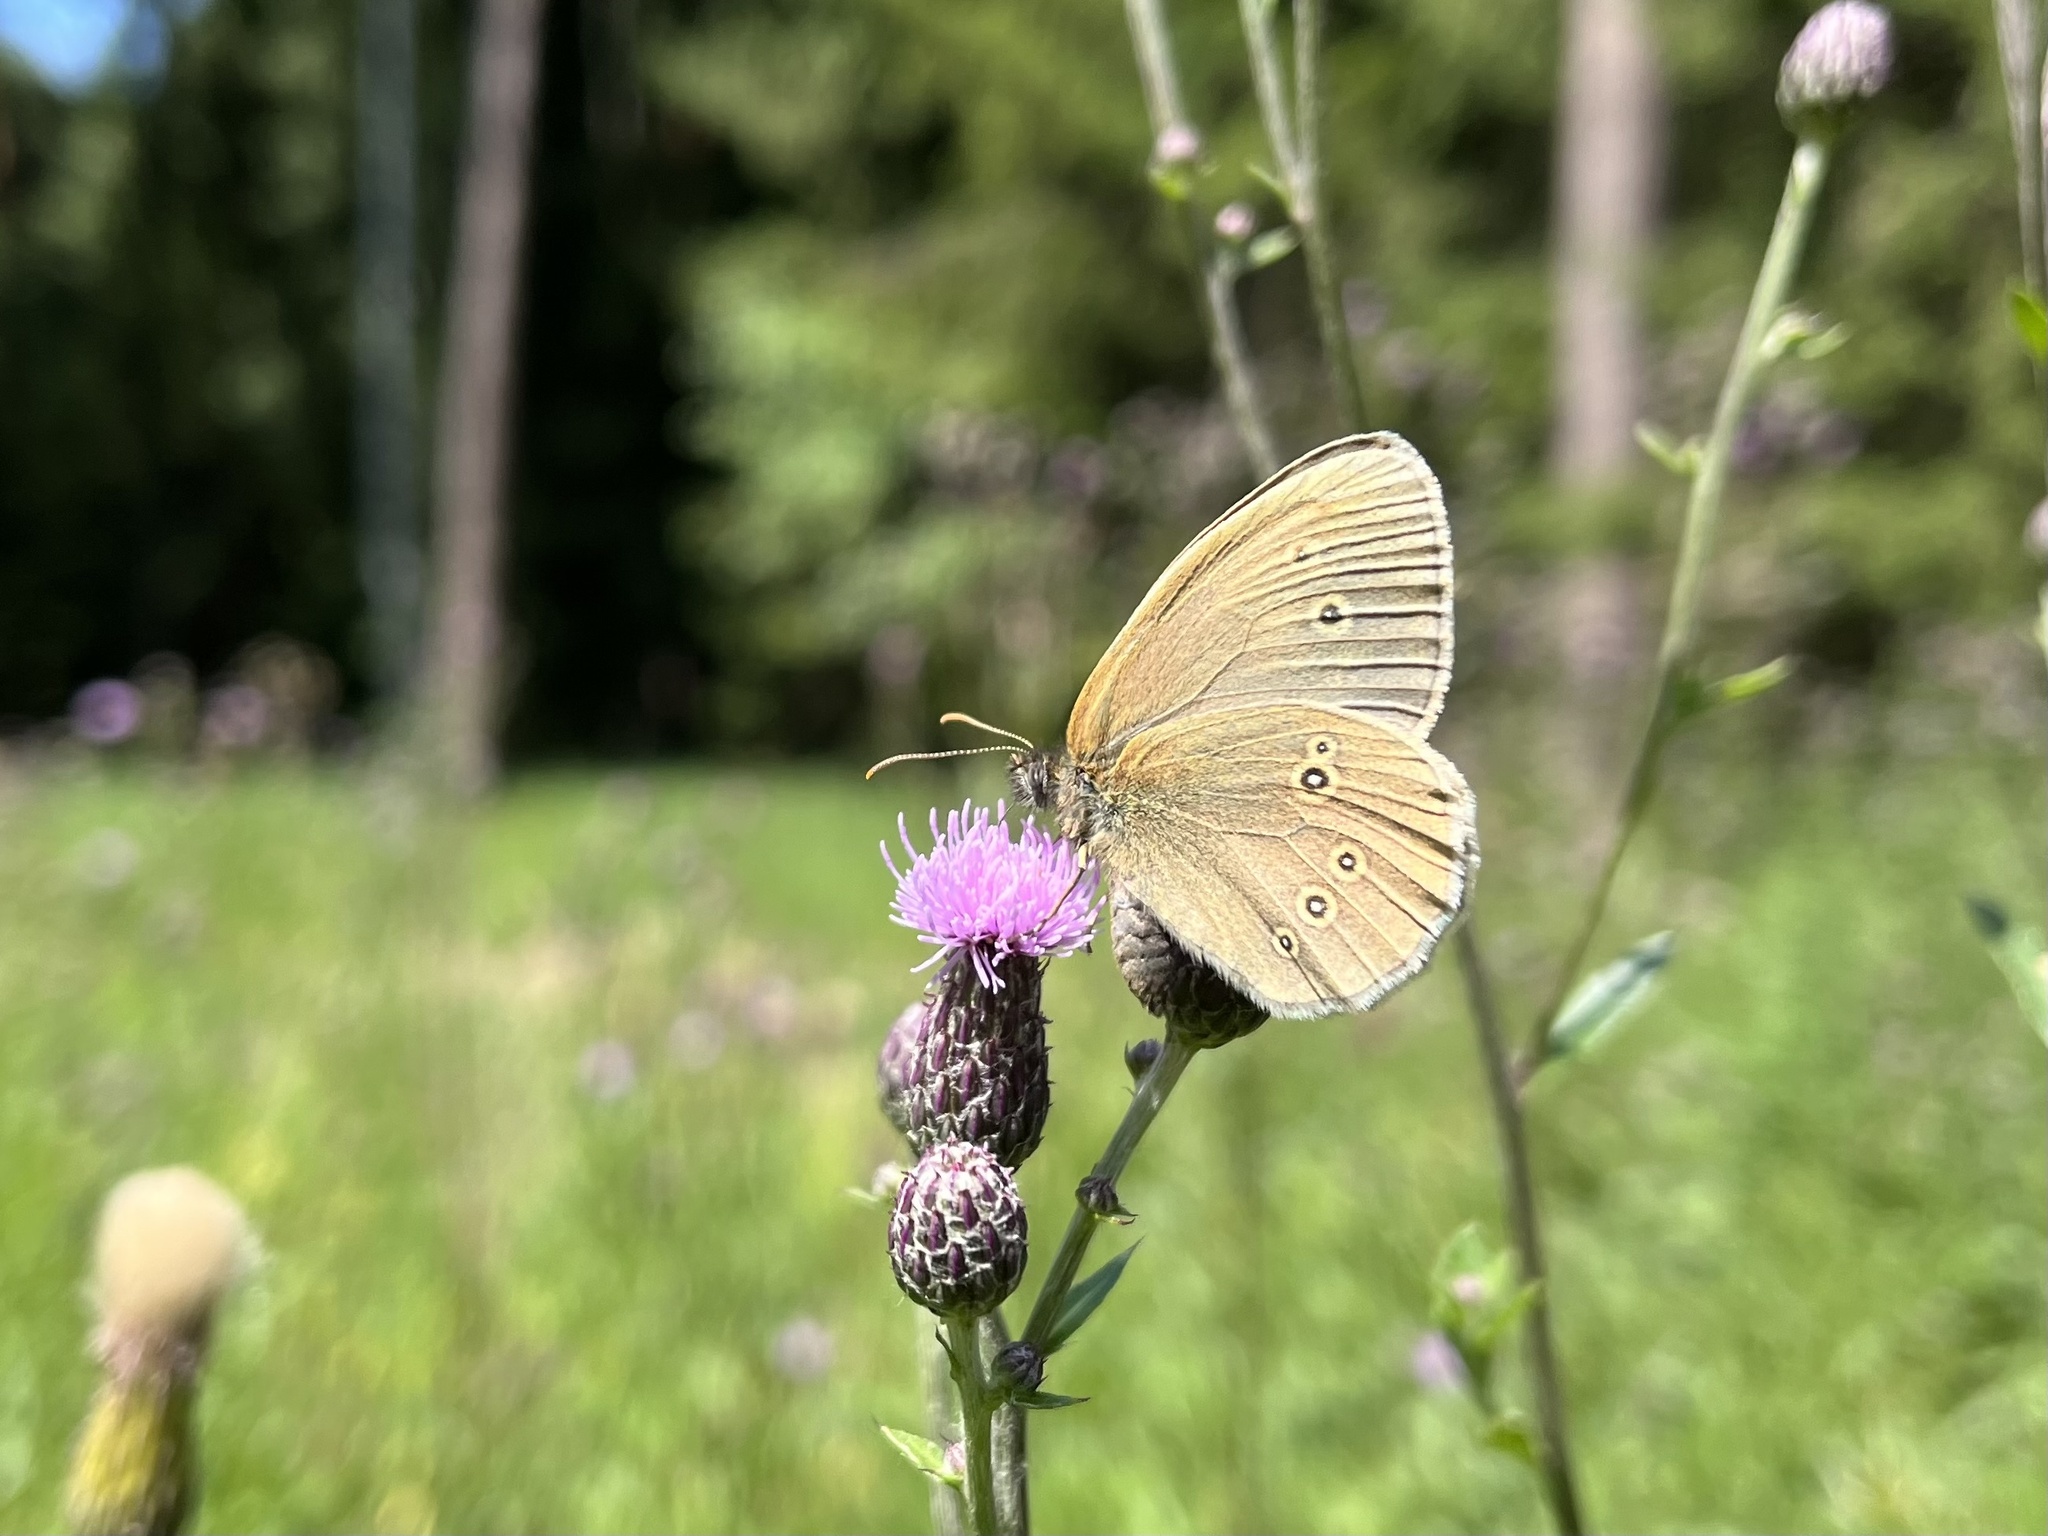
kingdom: Animalia
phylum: Arthropoda
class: Insecta
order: Lepidoptera
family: Nymphalidae
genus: Aphantopus
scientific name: Aphantopus hyperantus
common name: Ringlet
